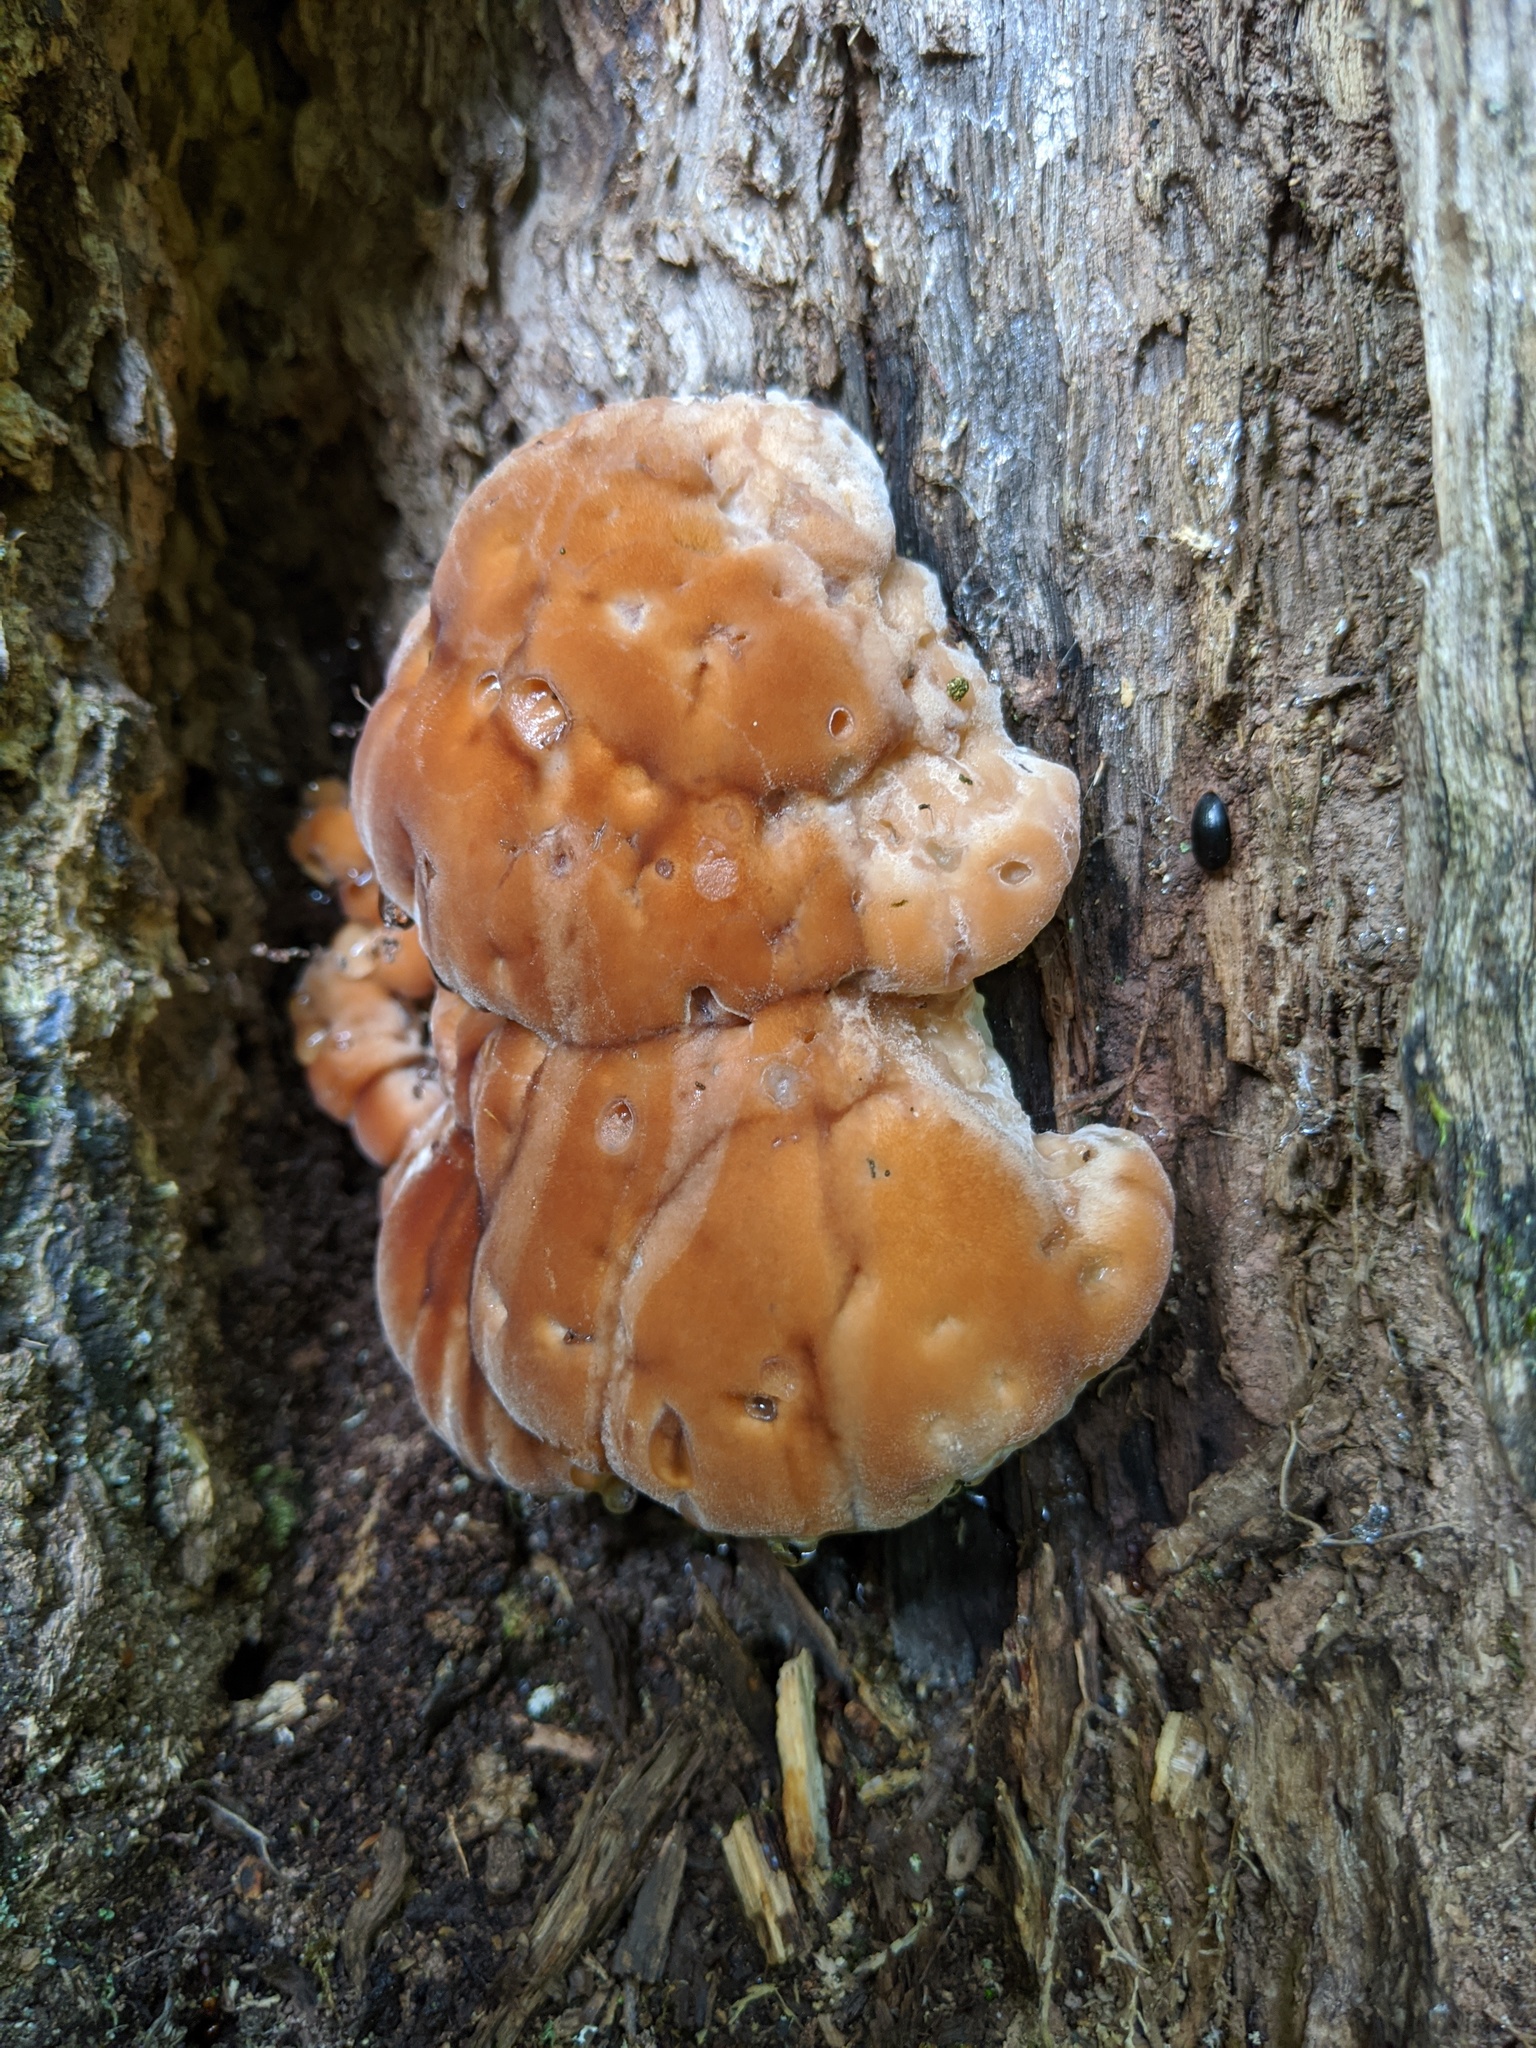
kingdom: Fungi
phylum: Basidiomycota
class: Agaricomycetes
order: Polyporales
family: Fomitopsidaceae
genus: Niveoporofomes
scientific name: Niveoporofomes spraguei
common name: Green cheese polypore
